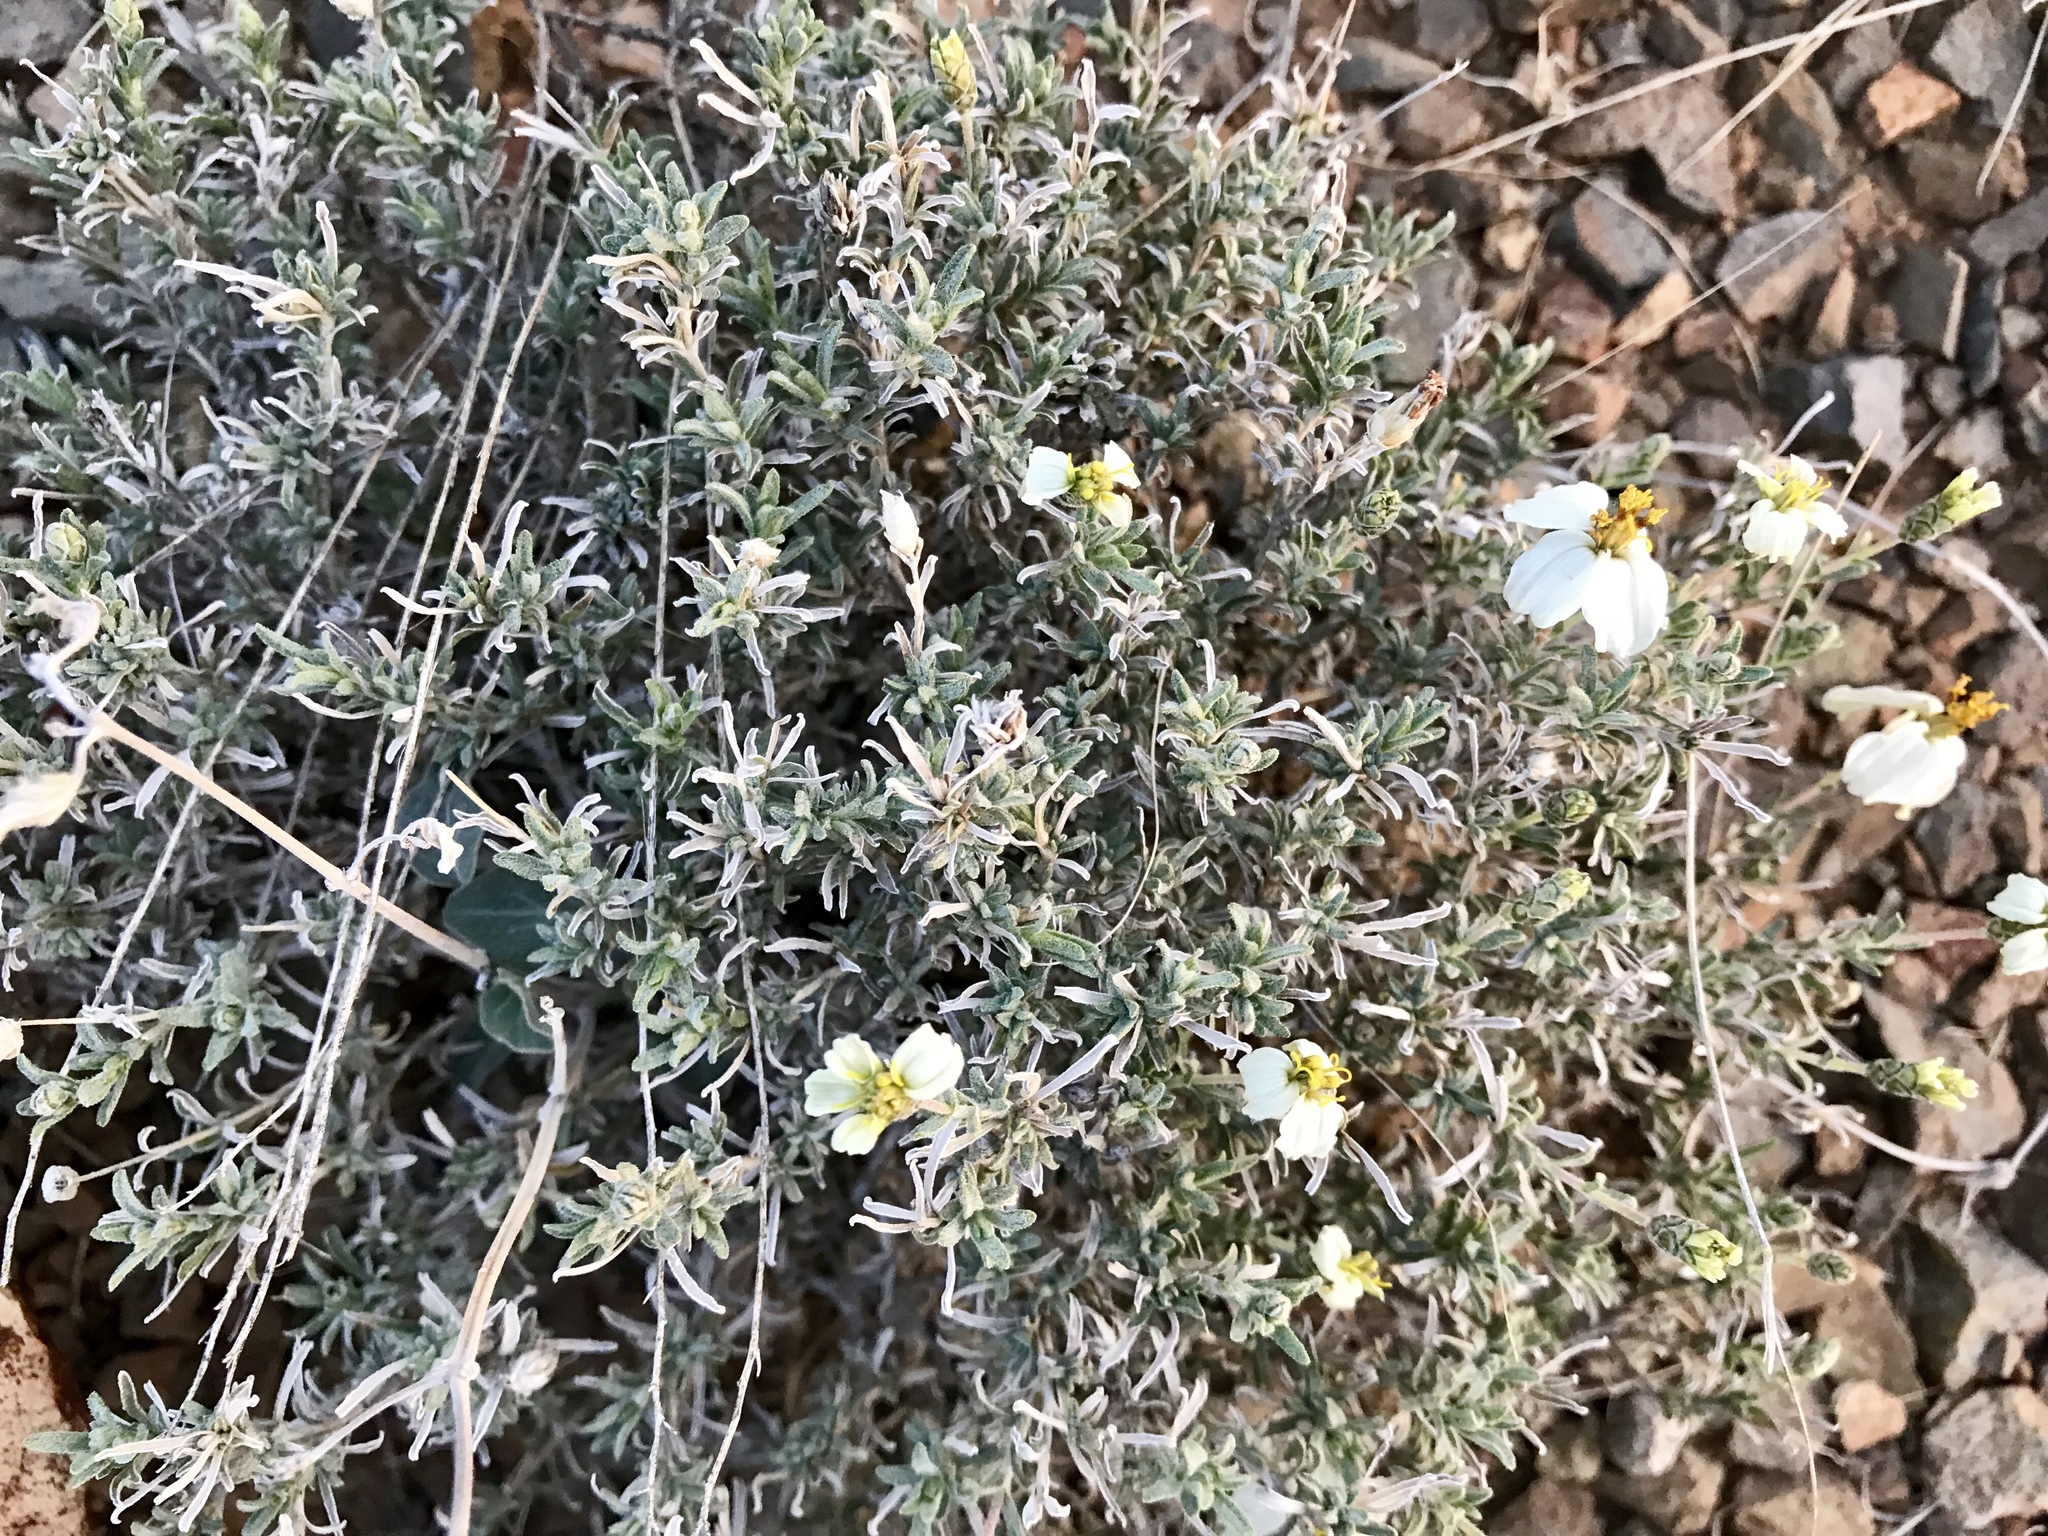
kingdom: Plantae
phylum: Tracheophyta
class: Magnoliopsida
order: Asterales
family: Asteraceae
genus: Zinnia
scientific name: Zinnia acerosa
